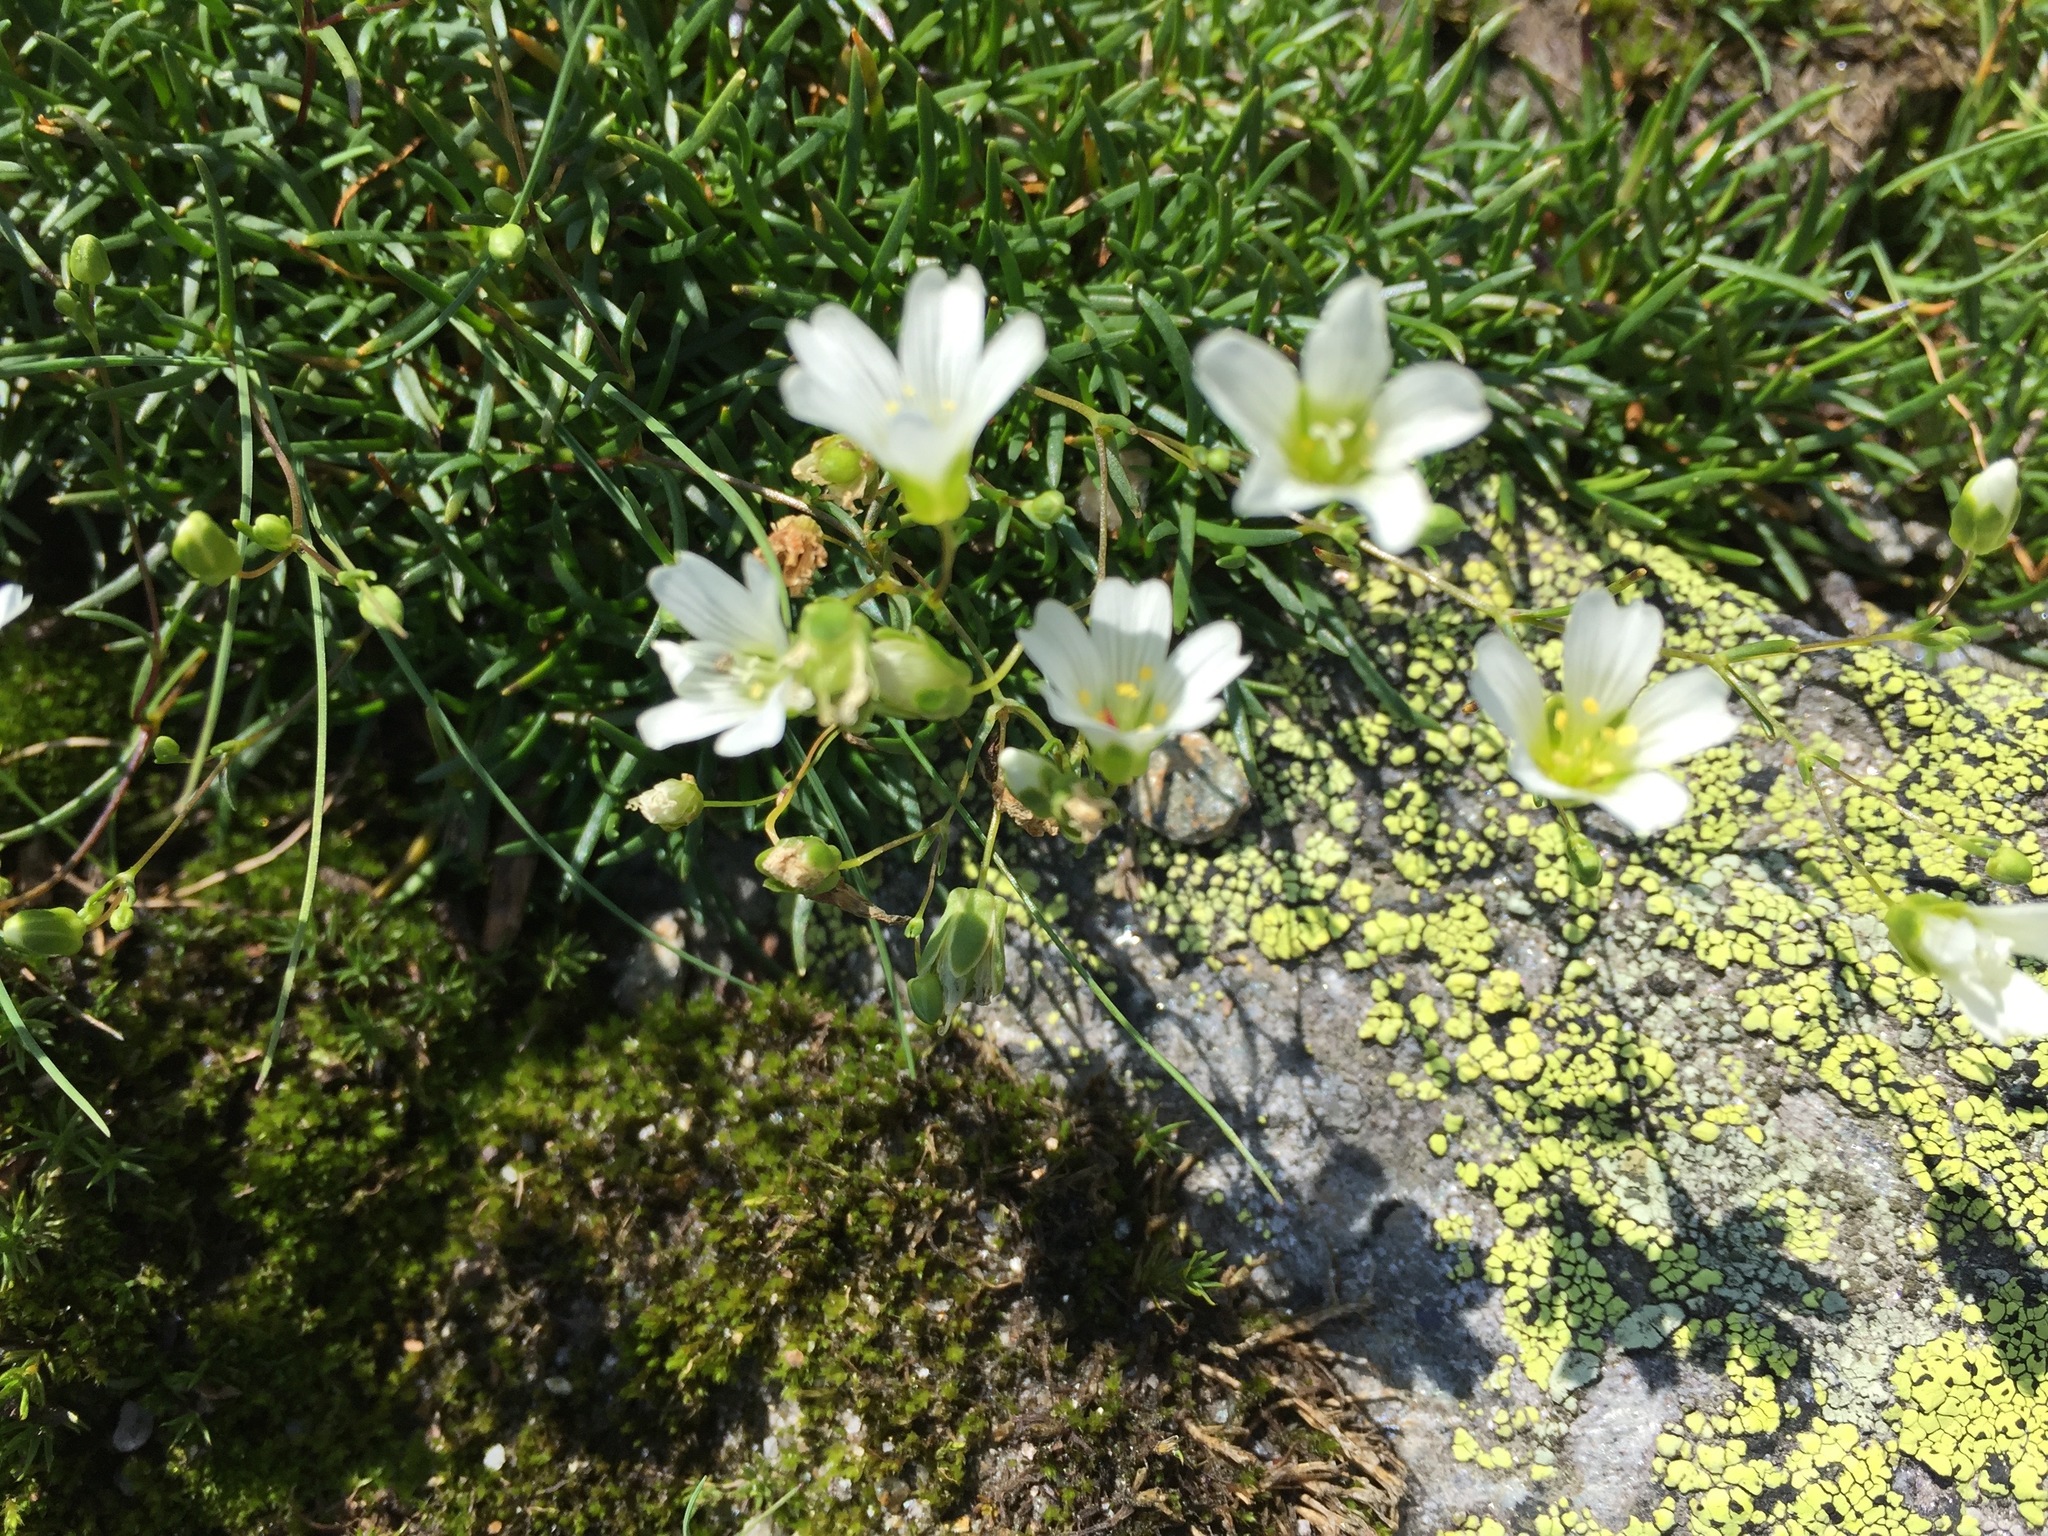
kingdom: Plantae
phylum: Tracheophyta
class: Magnoliopsida
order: Caryophyllales
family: Caryophyllaceae
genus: Geocarpon
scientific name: Geocarpon groenlandicum
